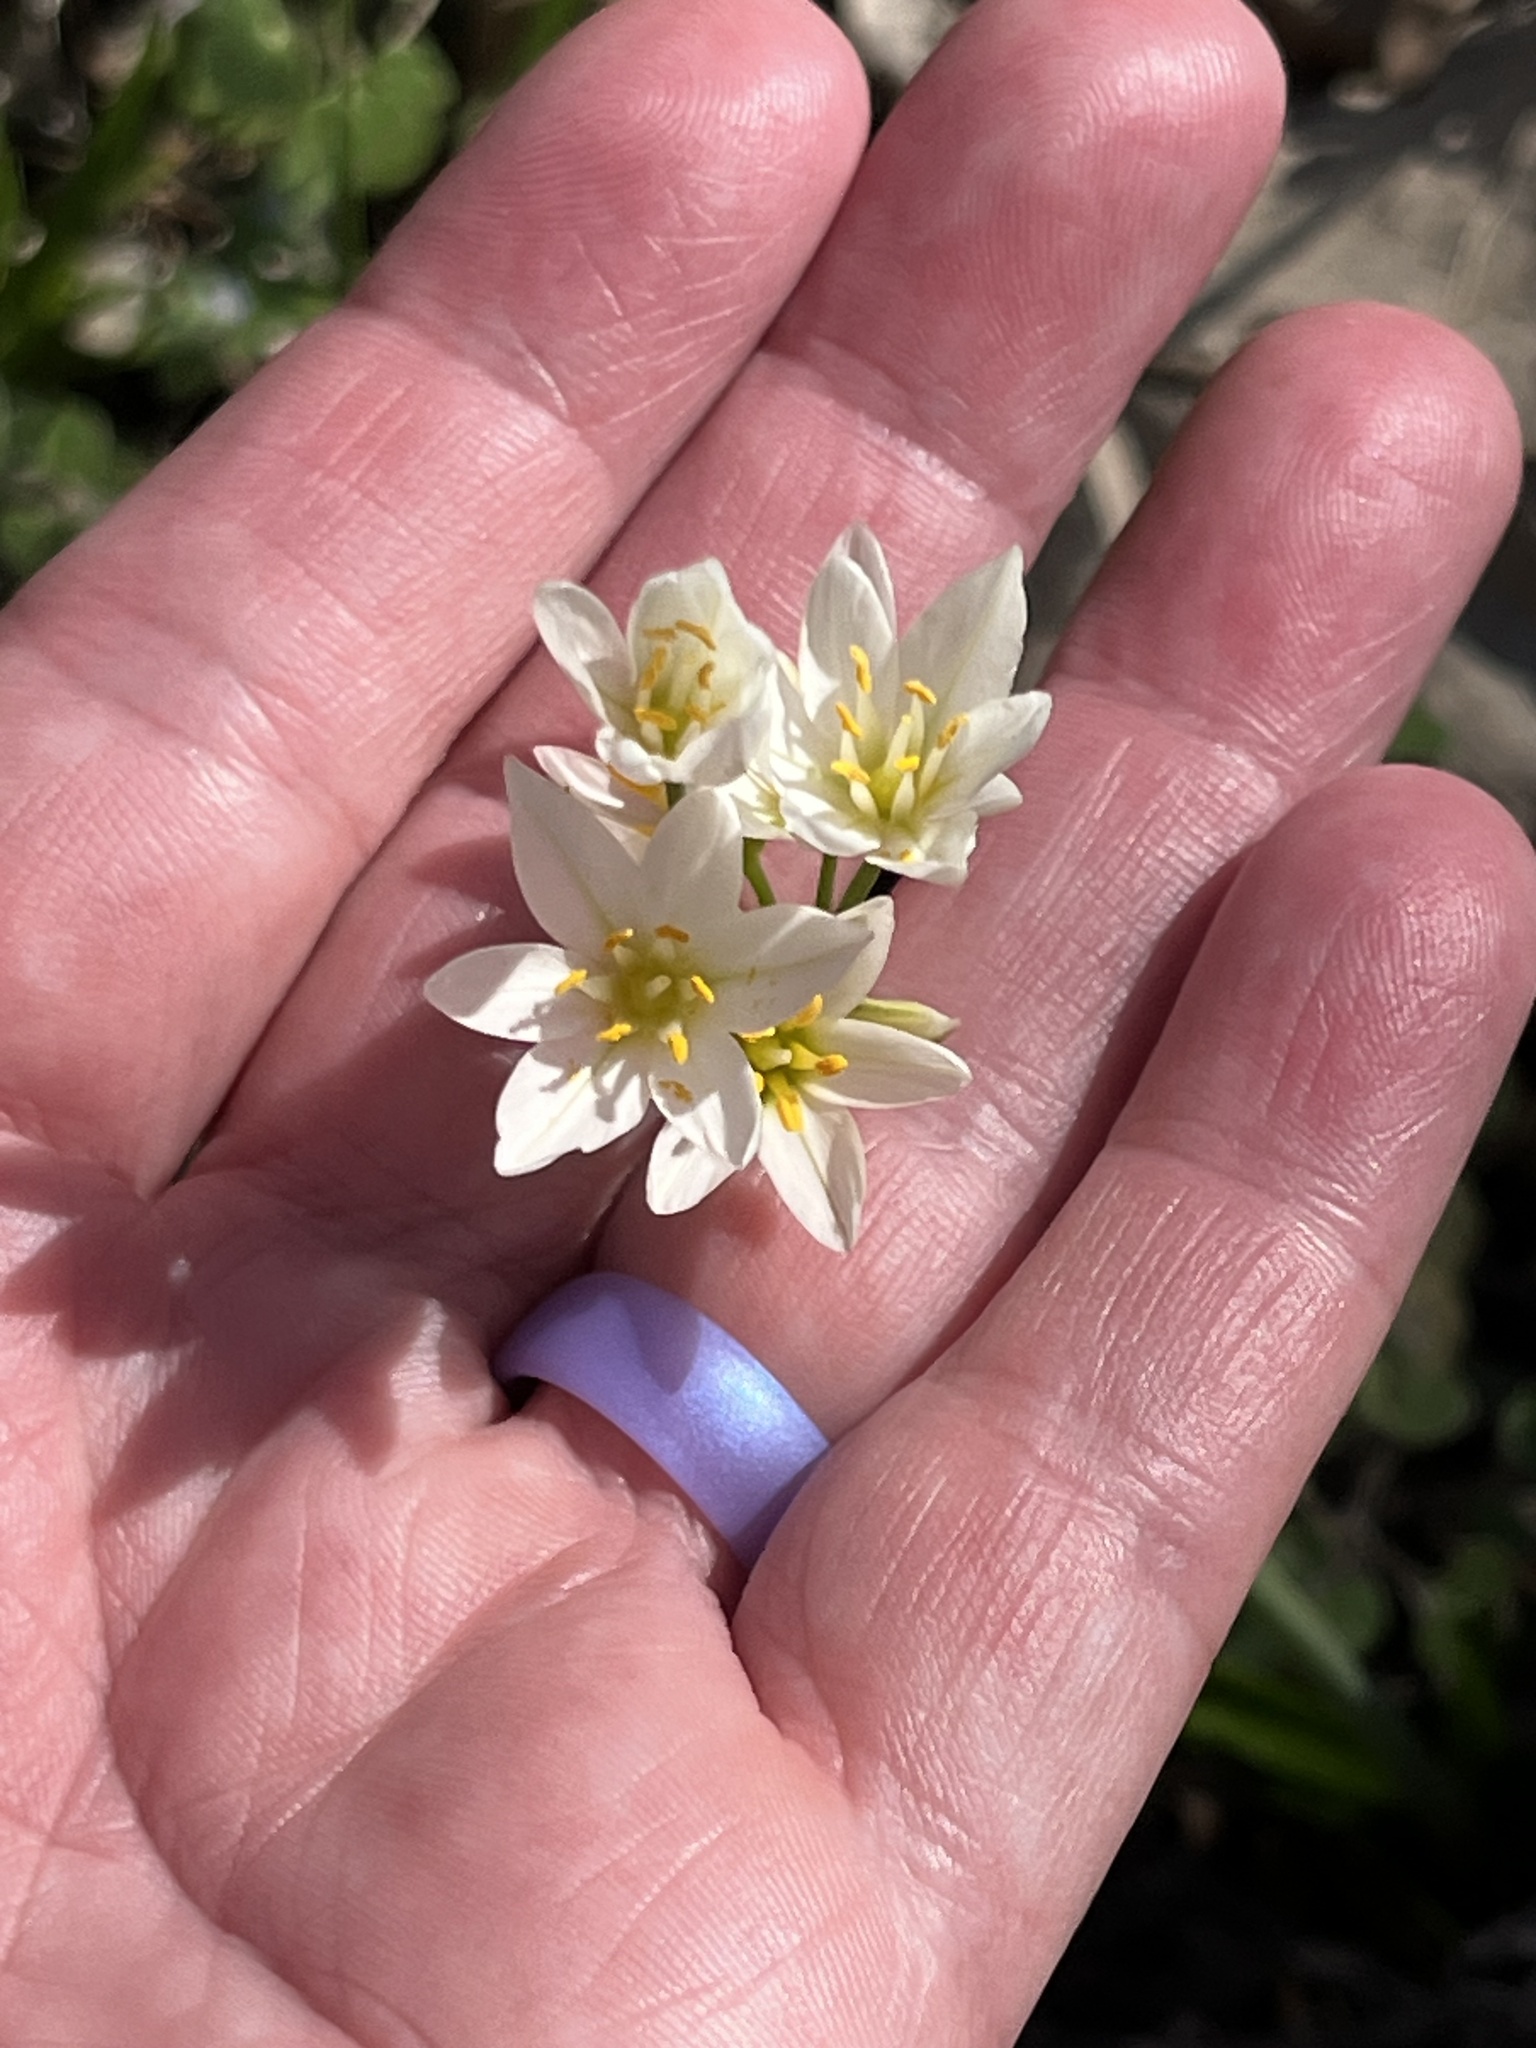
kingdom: Plantae
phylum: Tracheophyta
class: Liliopsida
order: Asparagales
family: Amaryllidaceae
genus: Nothoscordum
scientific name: Nothoscordum bivalve
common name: Crow-poison
